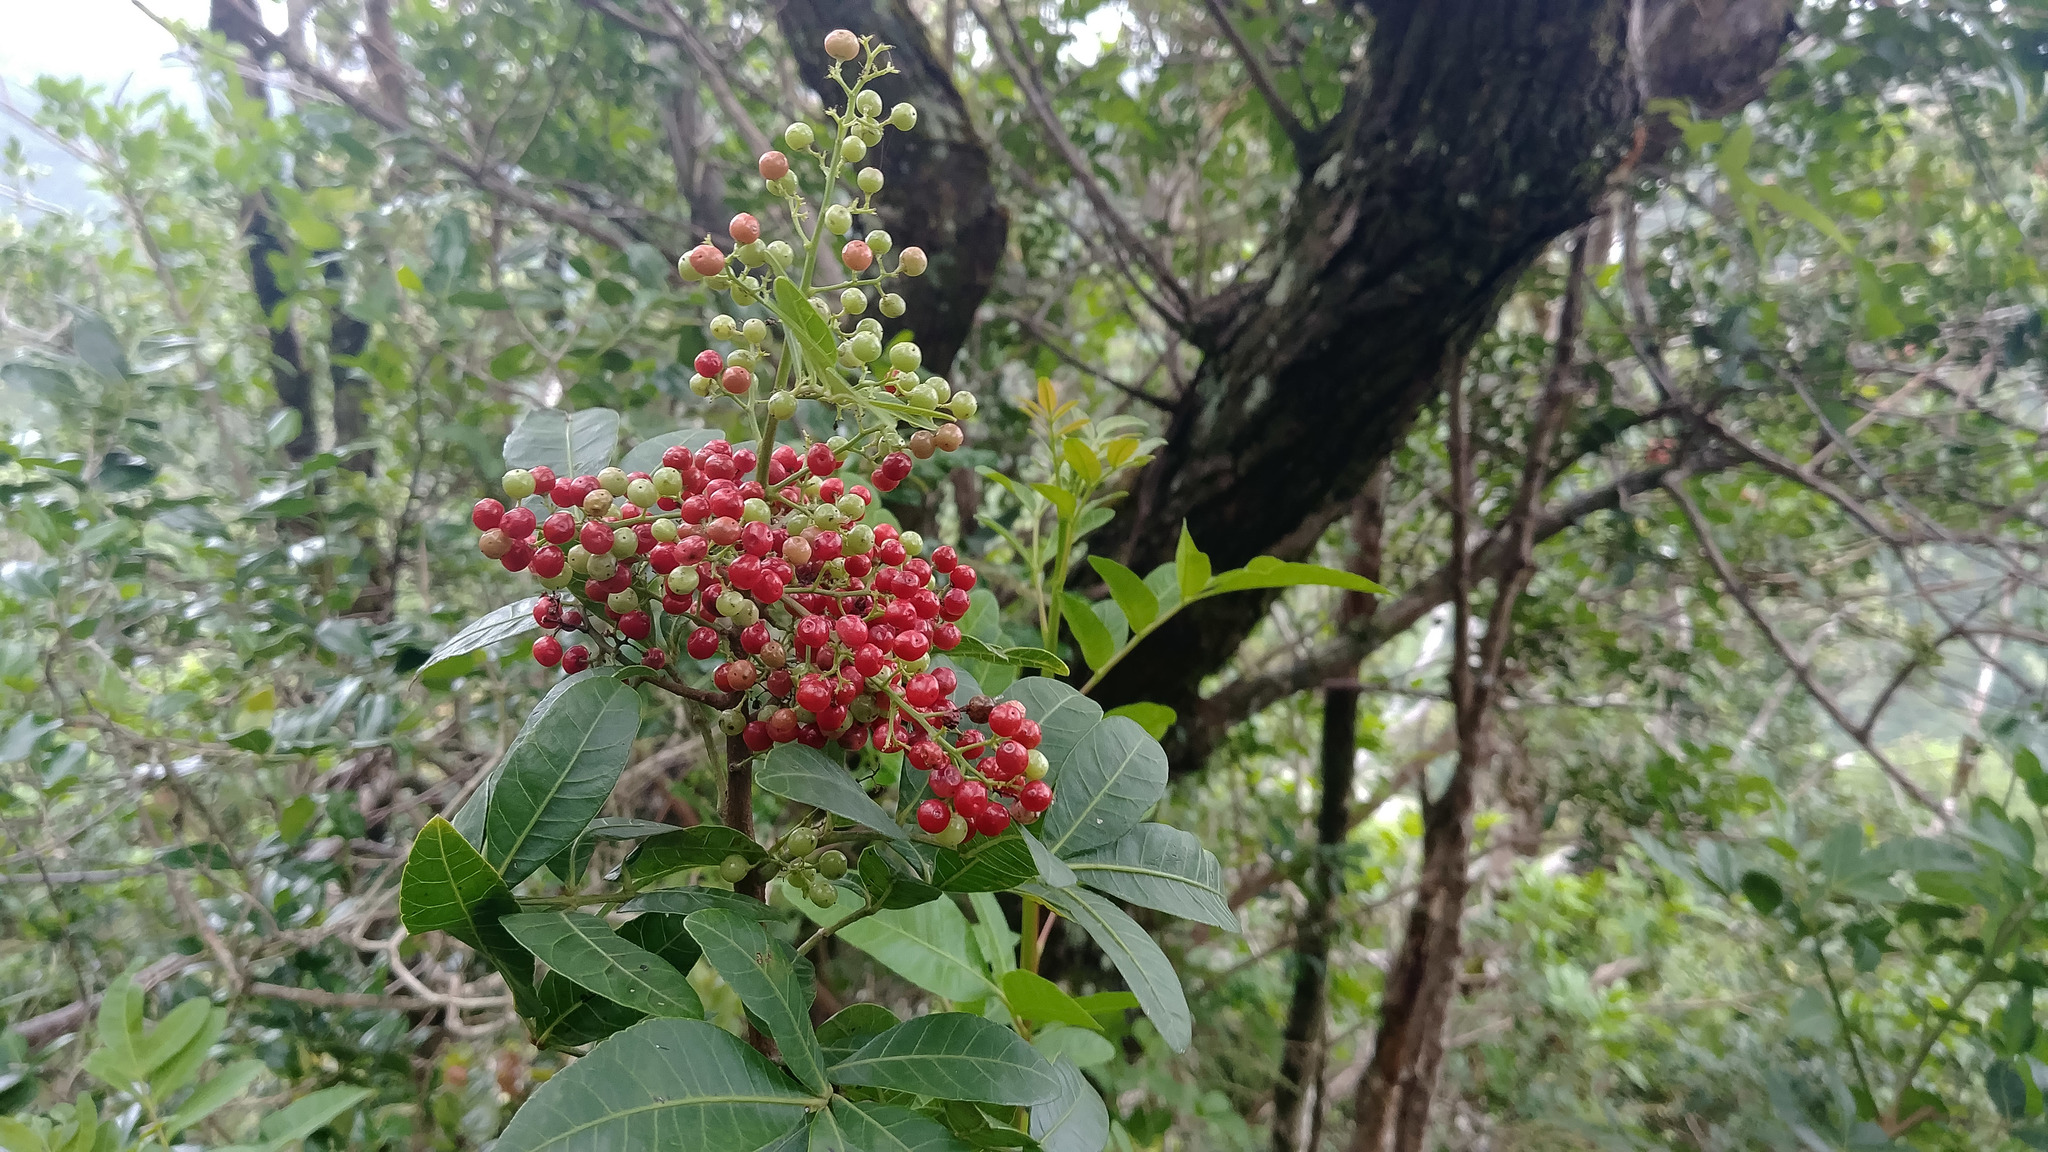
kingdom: Plantae
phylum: Tracheophyta
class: Magnoliopsida
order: Sapindales
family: Anacardiaceae
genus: Schinus
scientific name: Schinus terebinthifolia
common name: Brazilian peppertree
